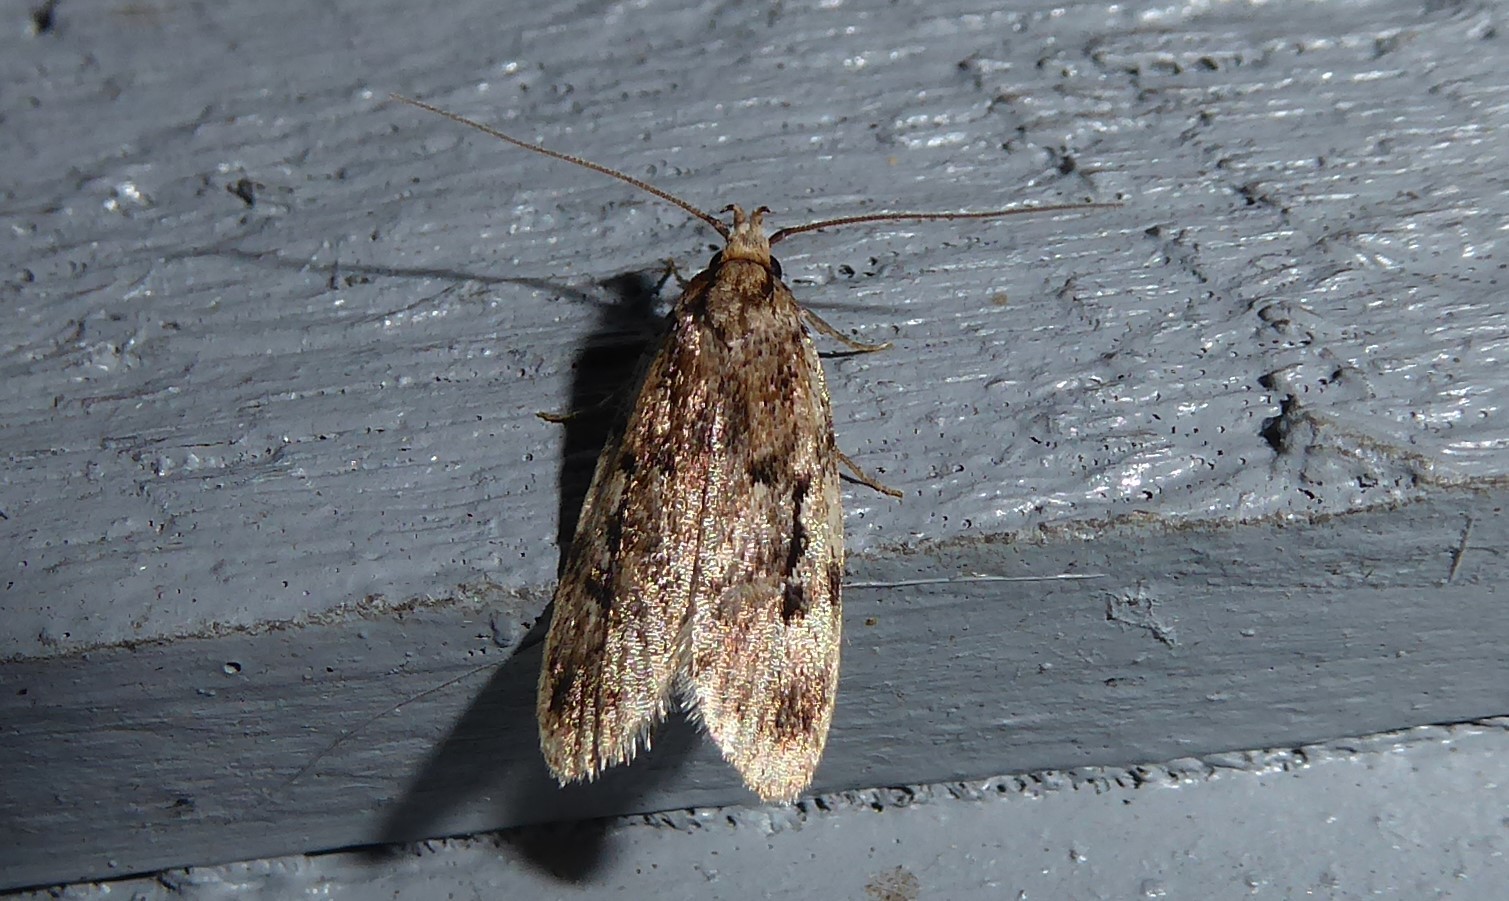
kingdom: Animalia
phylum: Arthropoda
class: Insecta
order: Lepidoptera
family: Oecophoridae
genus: Barea
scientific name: Barea exarcha
